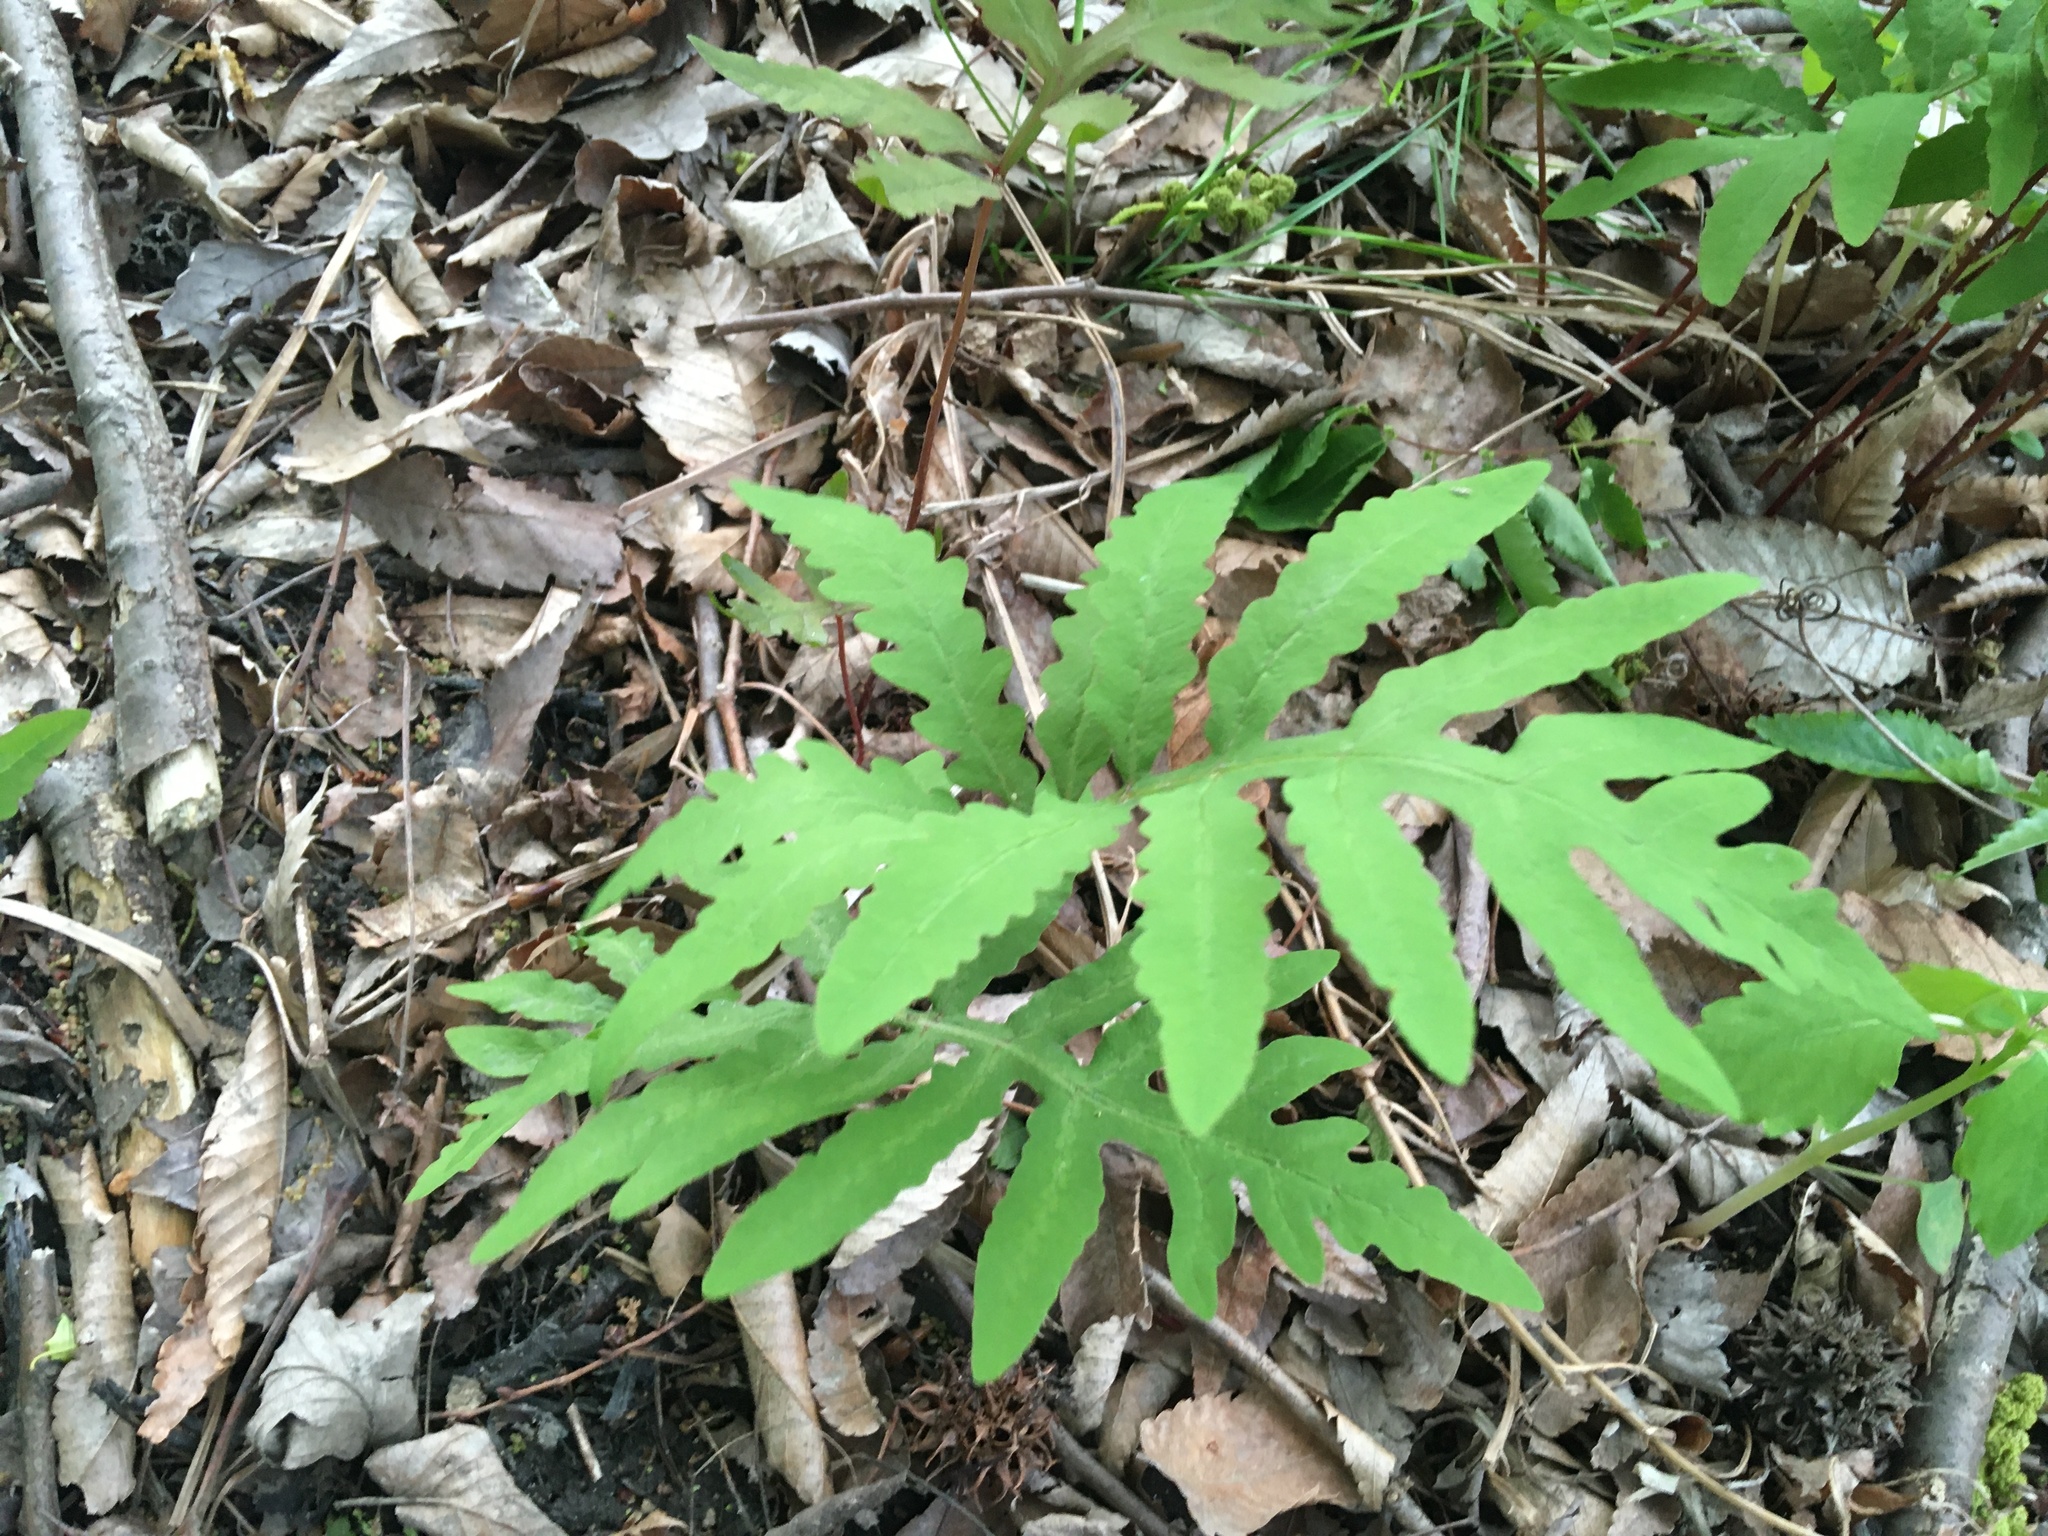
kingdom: Plantae
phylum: Tracheophyta
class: Polypodiopsida
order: Polypodiales
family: Onocleaceae
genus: Onoclea
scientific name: Onoclea sensibilis
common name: Sensitive fern
